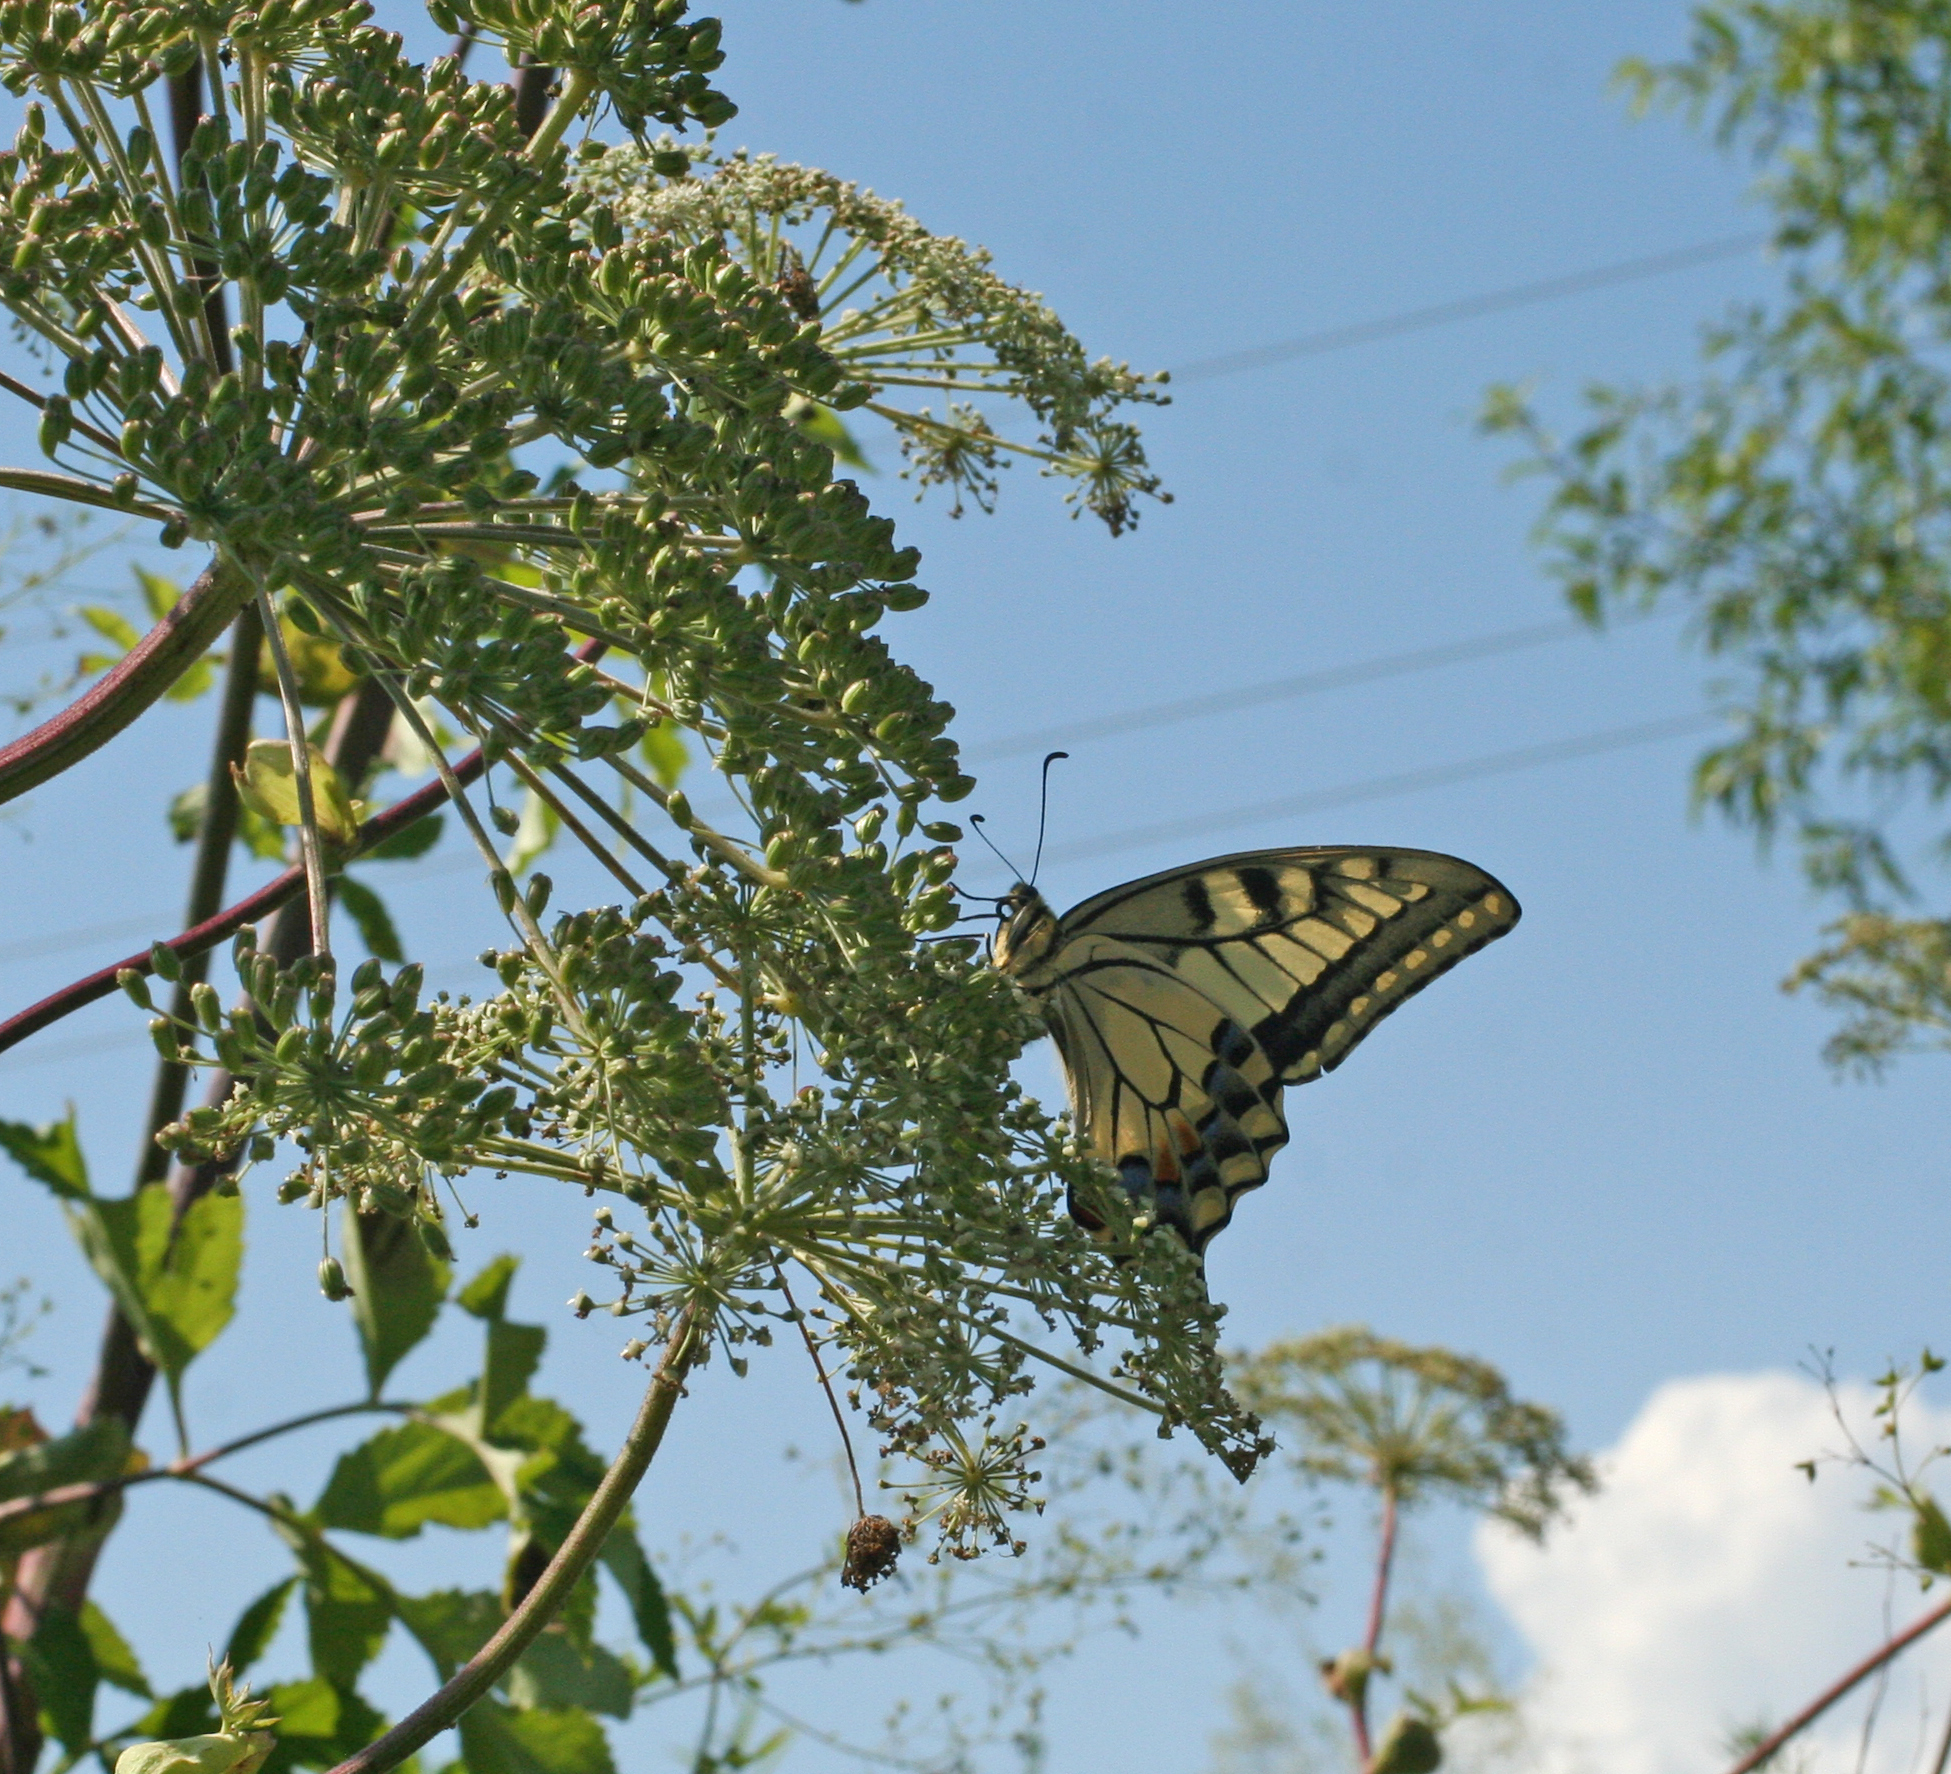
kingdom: Animalia
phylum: Arthropoda
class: Insecta
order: Lepidoptera
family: Papilionidae
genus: Papilio
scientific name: Papilio machaon
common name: Swallowtail
